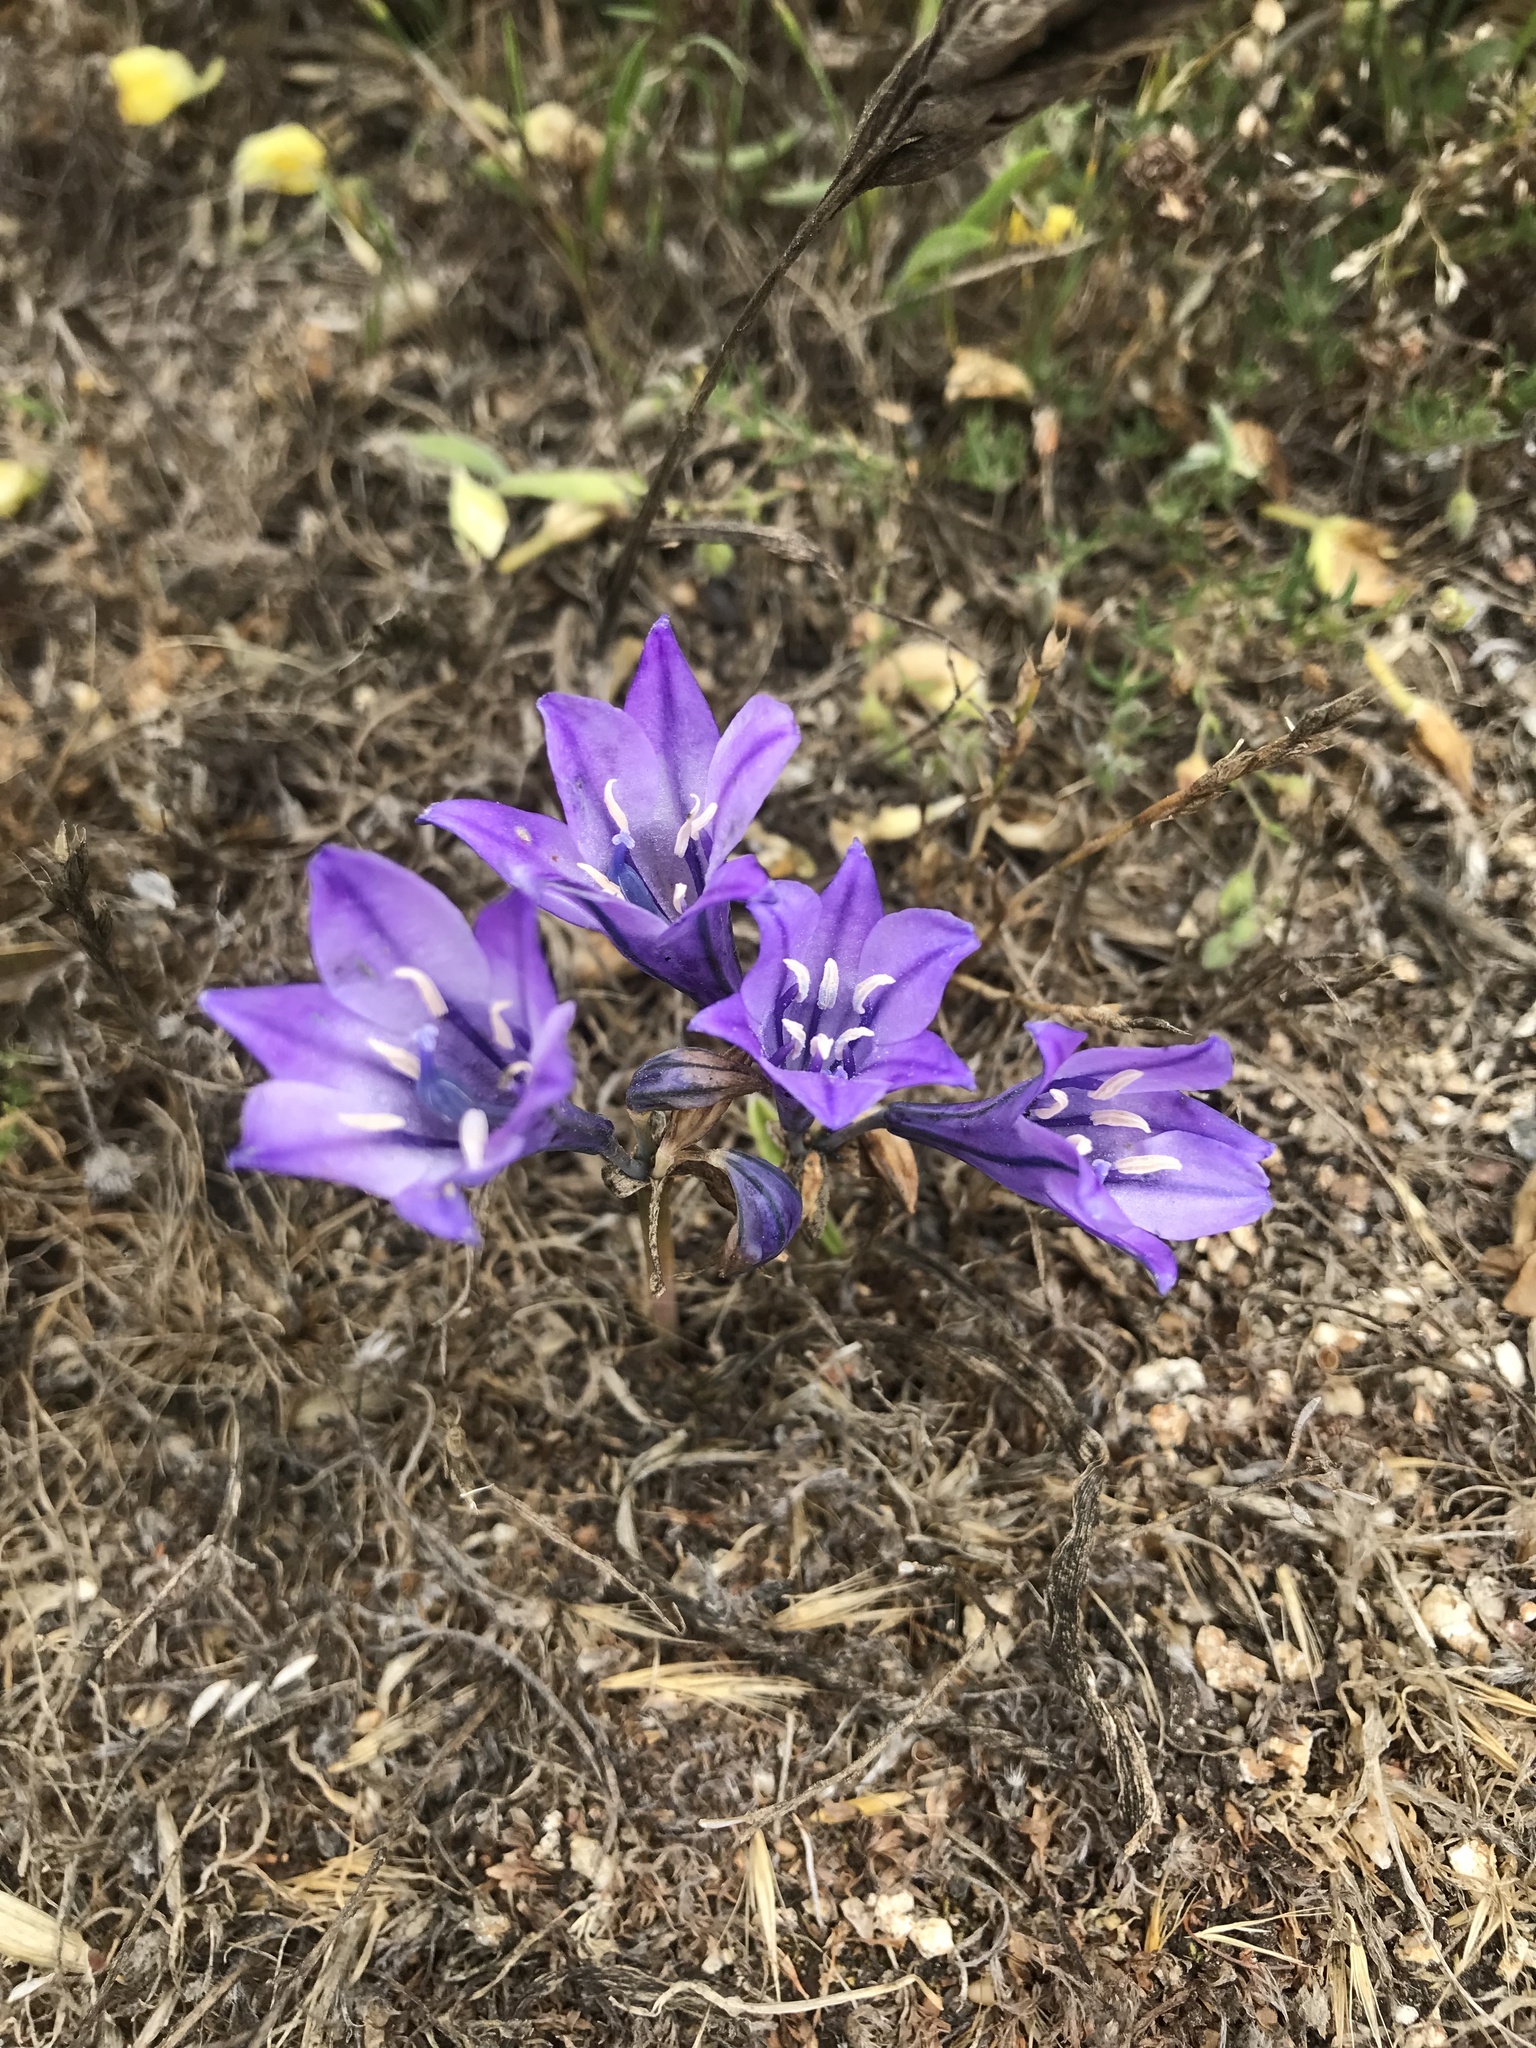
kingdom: Plantae
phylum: Tracheophyta
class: Liliopsida
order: Asparagales
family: Asparagaceae
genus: Triteleia
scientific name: Triteleia laxa
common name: Triplet-lily
